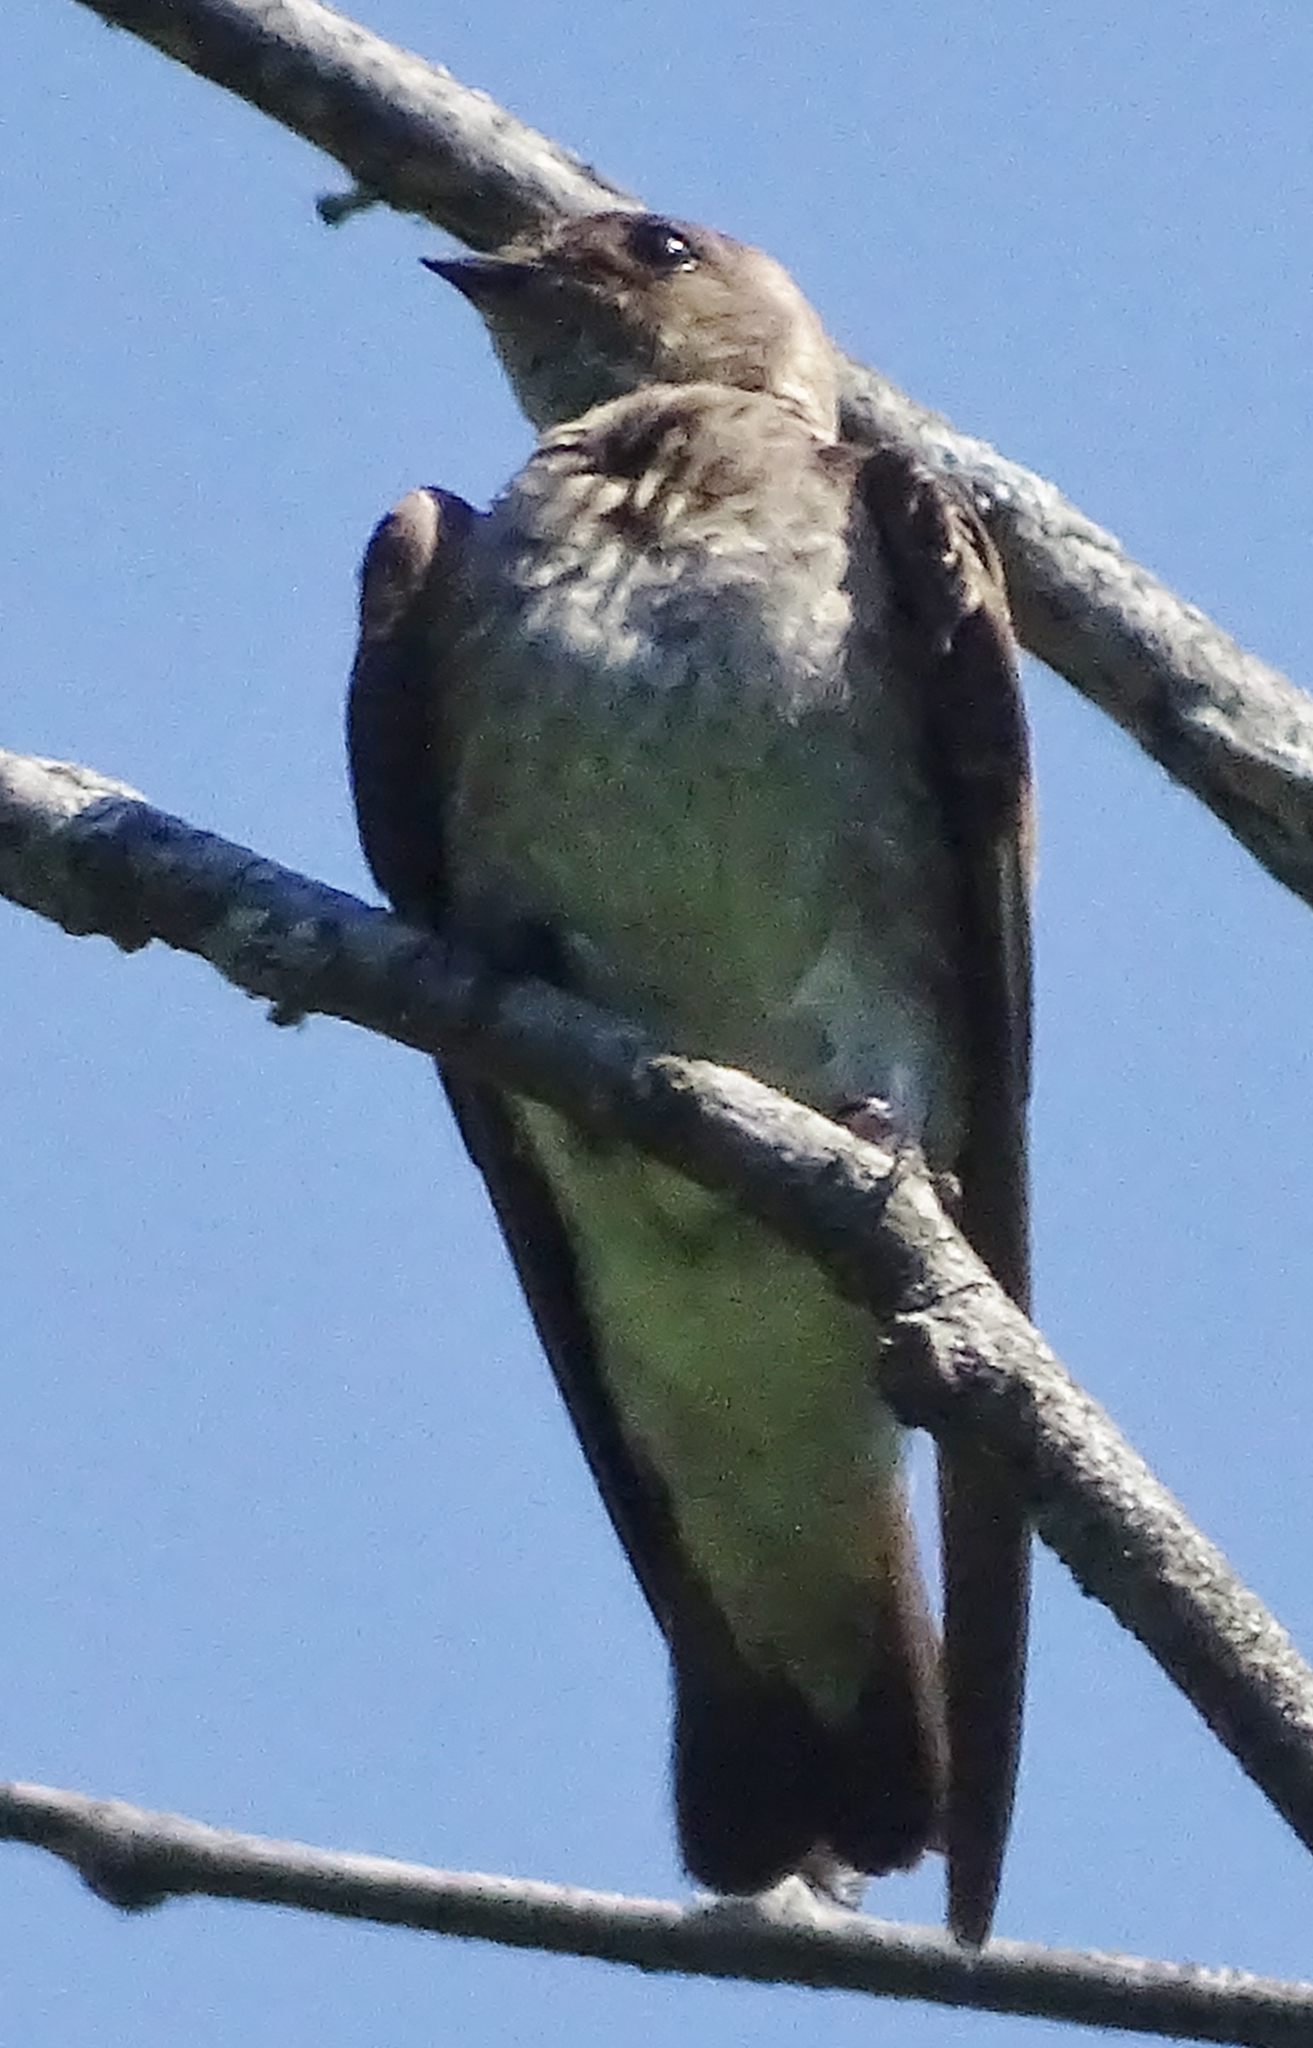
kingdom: Animalia
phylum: Chordata
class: Aves
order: Passeriformes
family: Hirundinidae
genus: Stelgidopteryx
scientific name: Stelgidopteryx serripennis
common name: Northern rough-winged swallow
